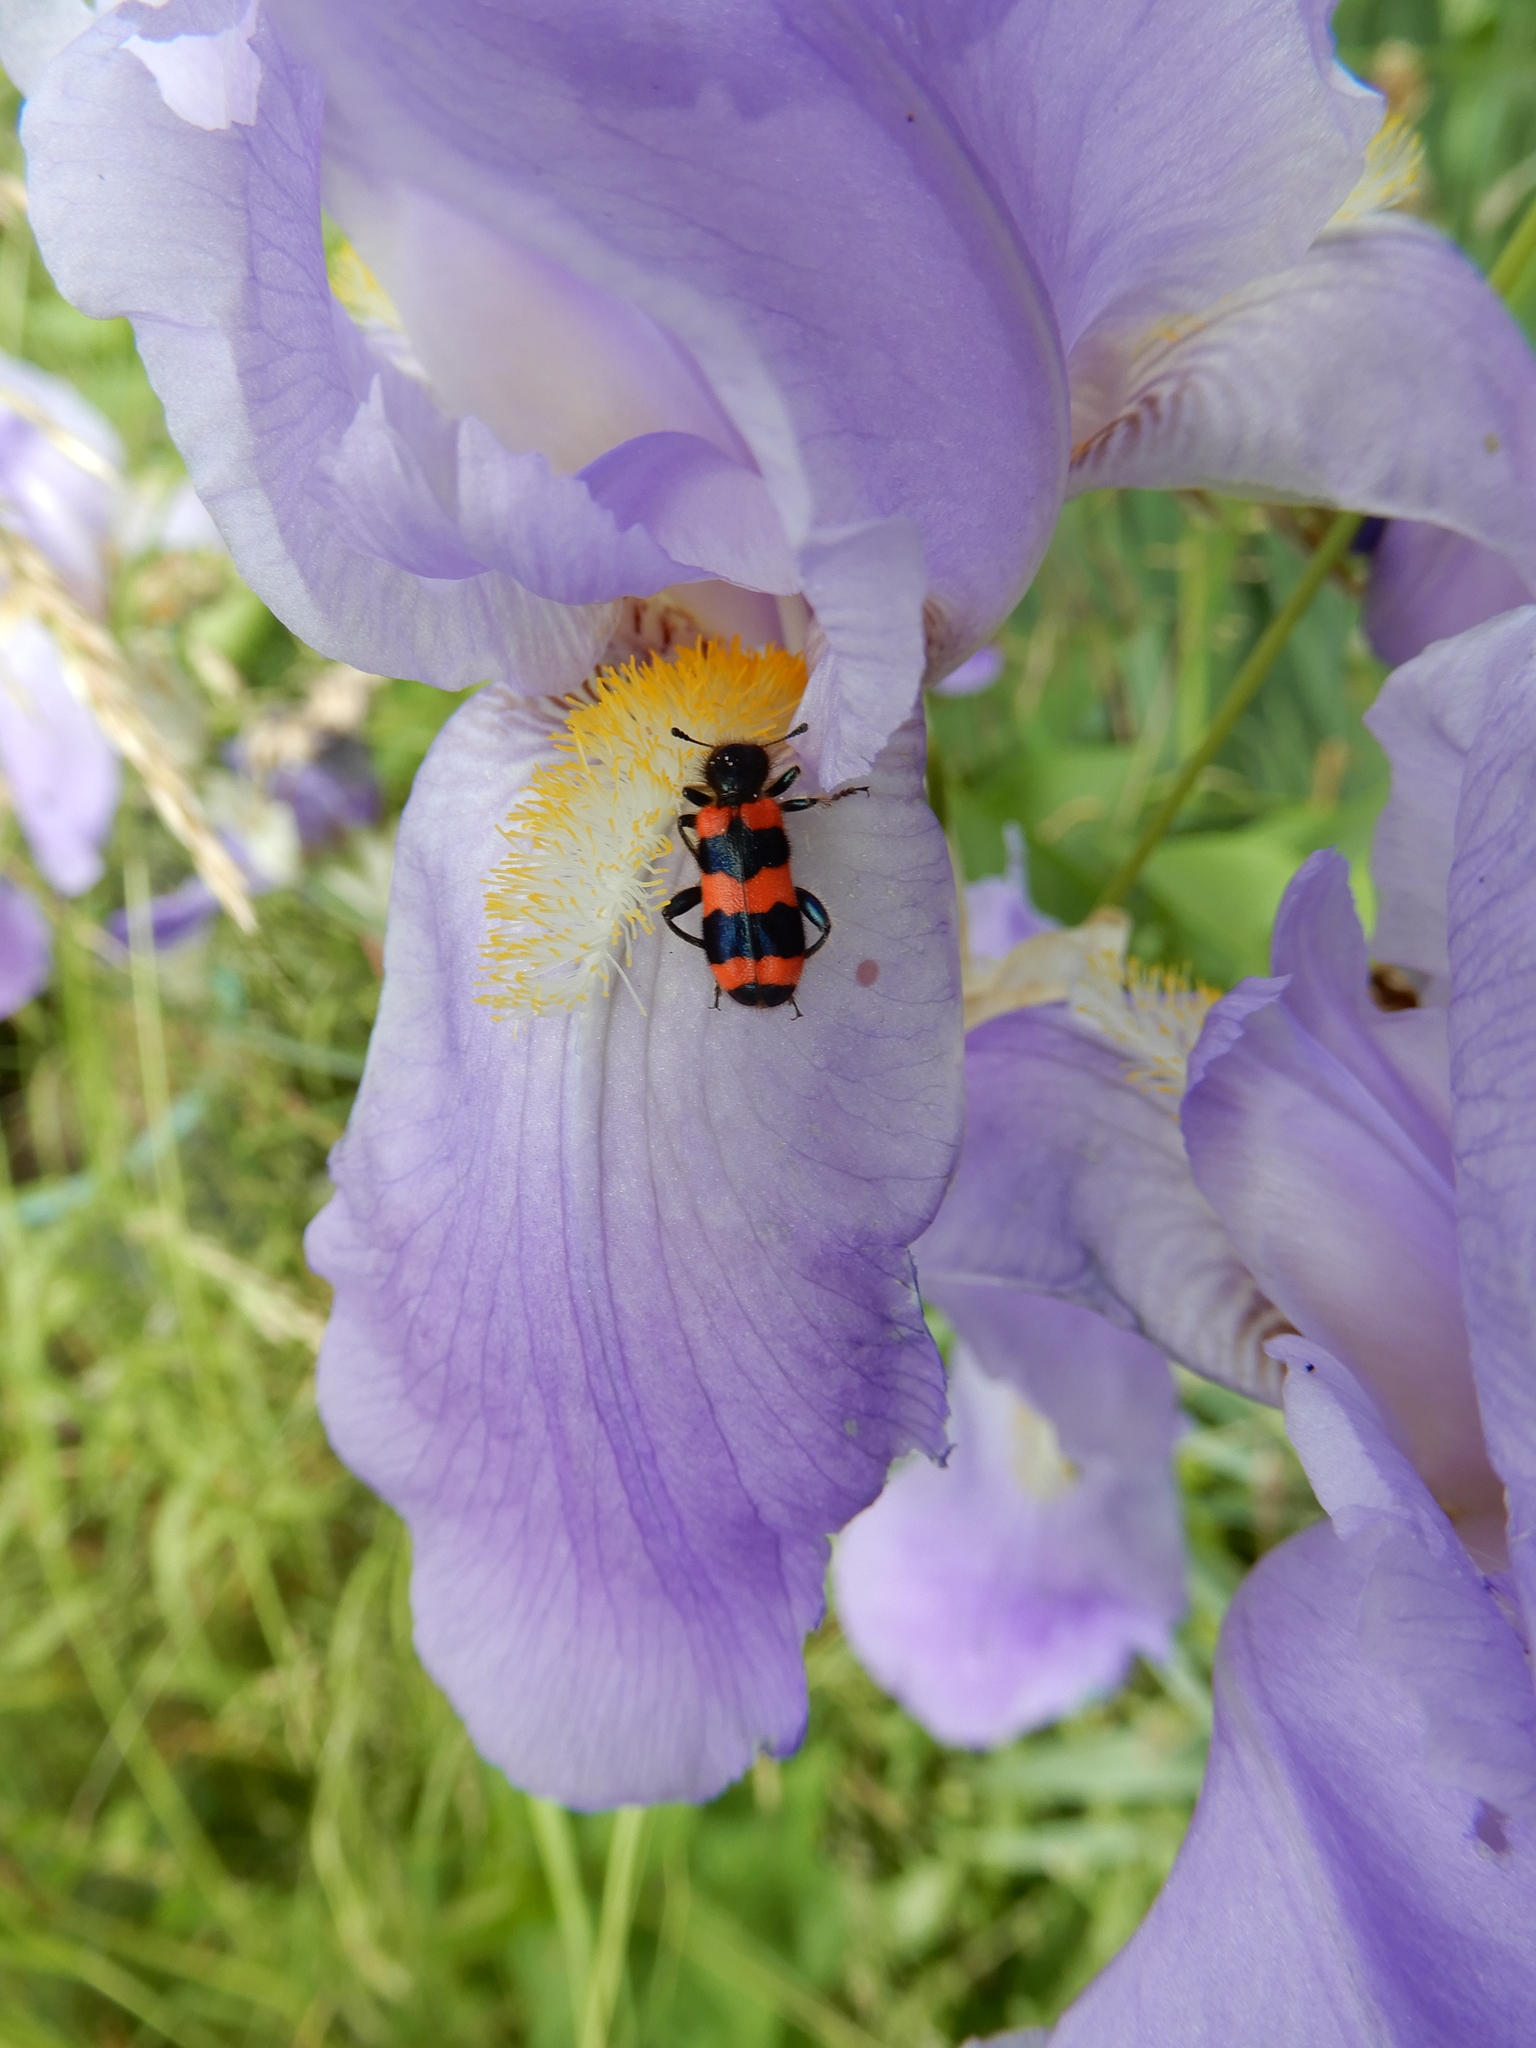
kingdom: Animalia
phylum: Arthropoda
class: Insecta
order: Coleoptera
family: Cleridae
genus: Trichodes
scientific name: Trichodes apiarius
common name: Bee-eating beetle
